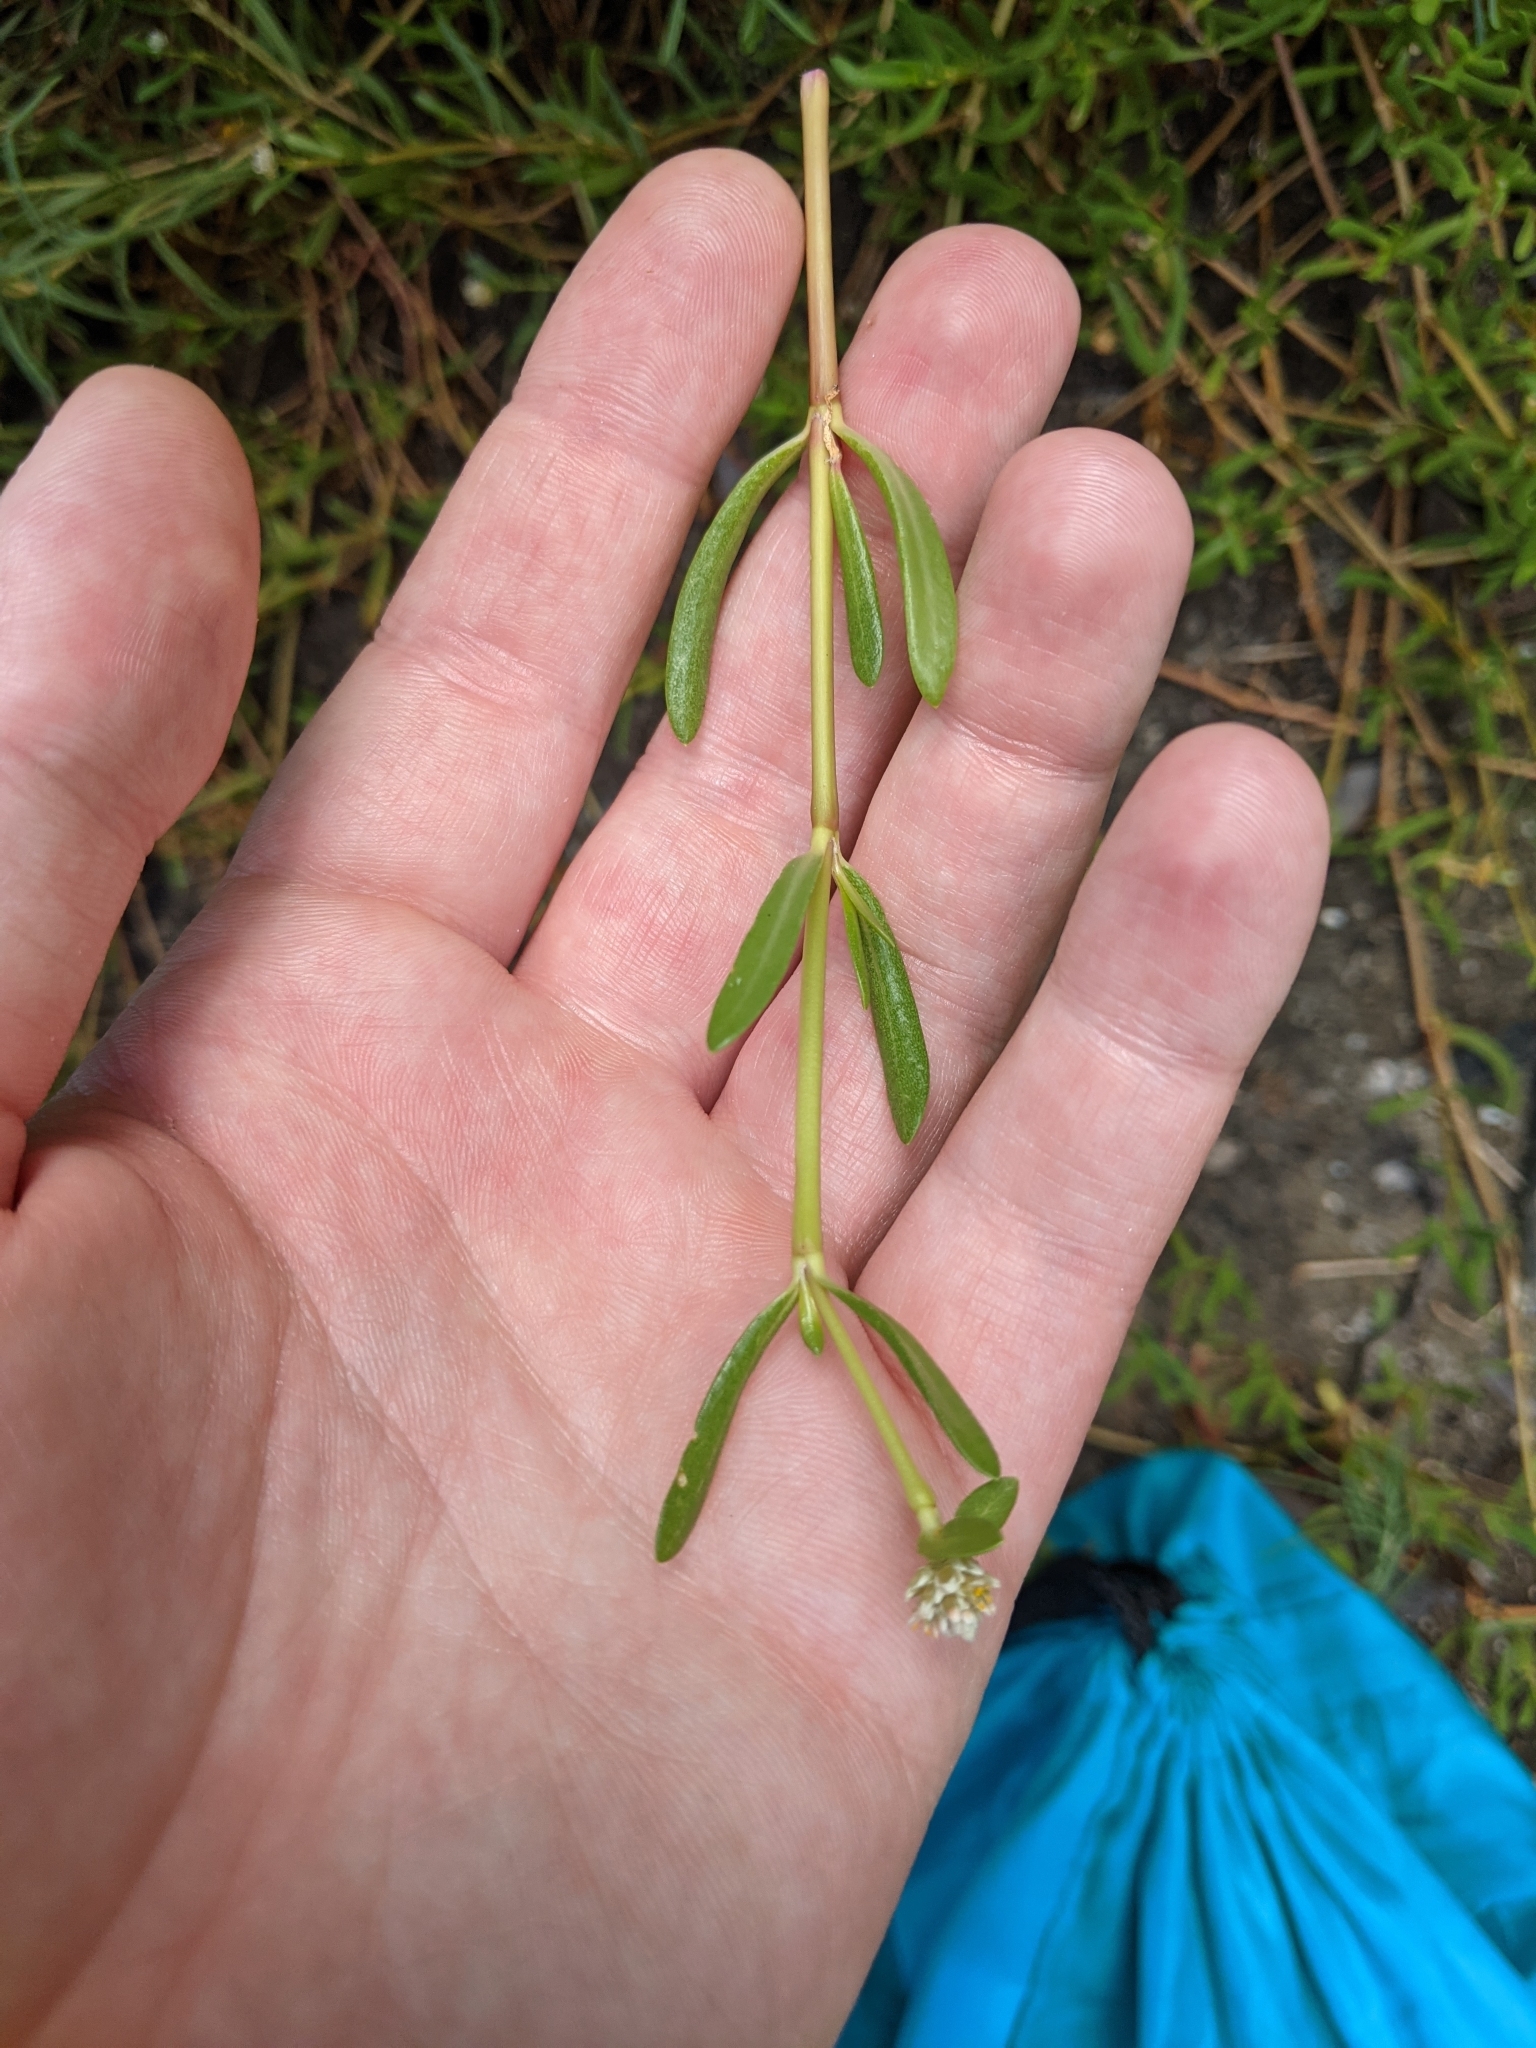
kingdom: Plantae
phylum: Tracheophyta
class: Magnoliopsida
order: Caryophyllales
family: Amaranthaceae
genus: Gomphrena
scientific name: Gomphrena vermicularis
